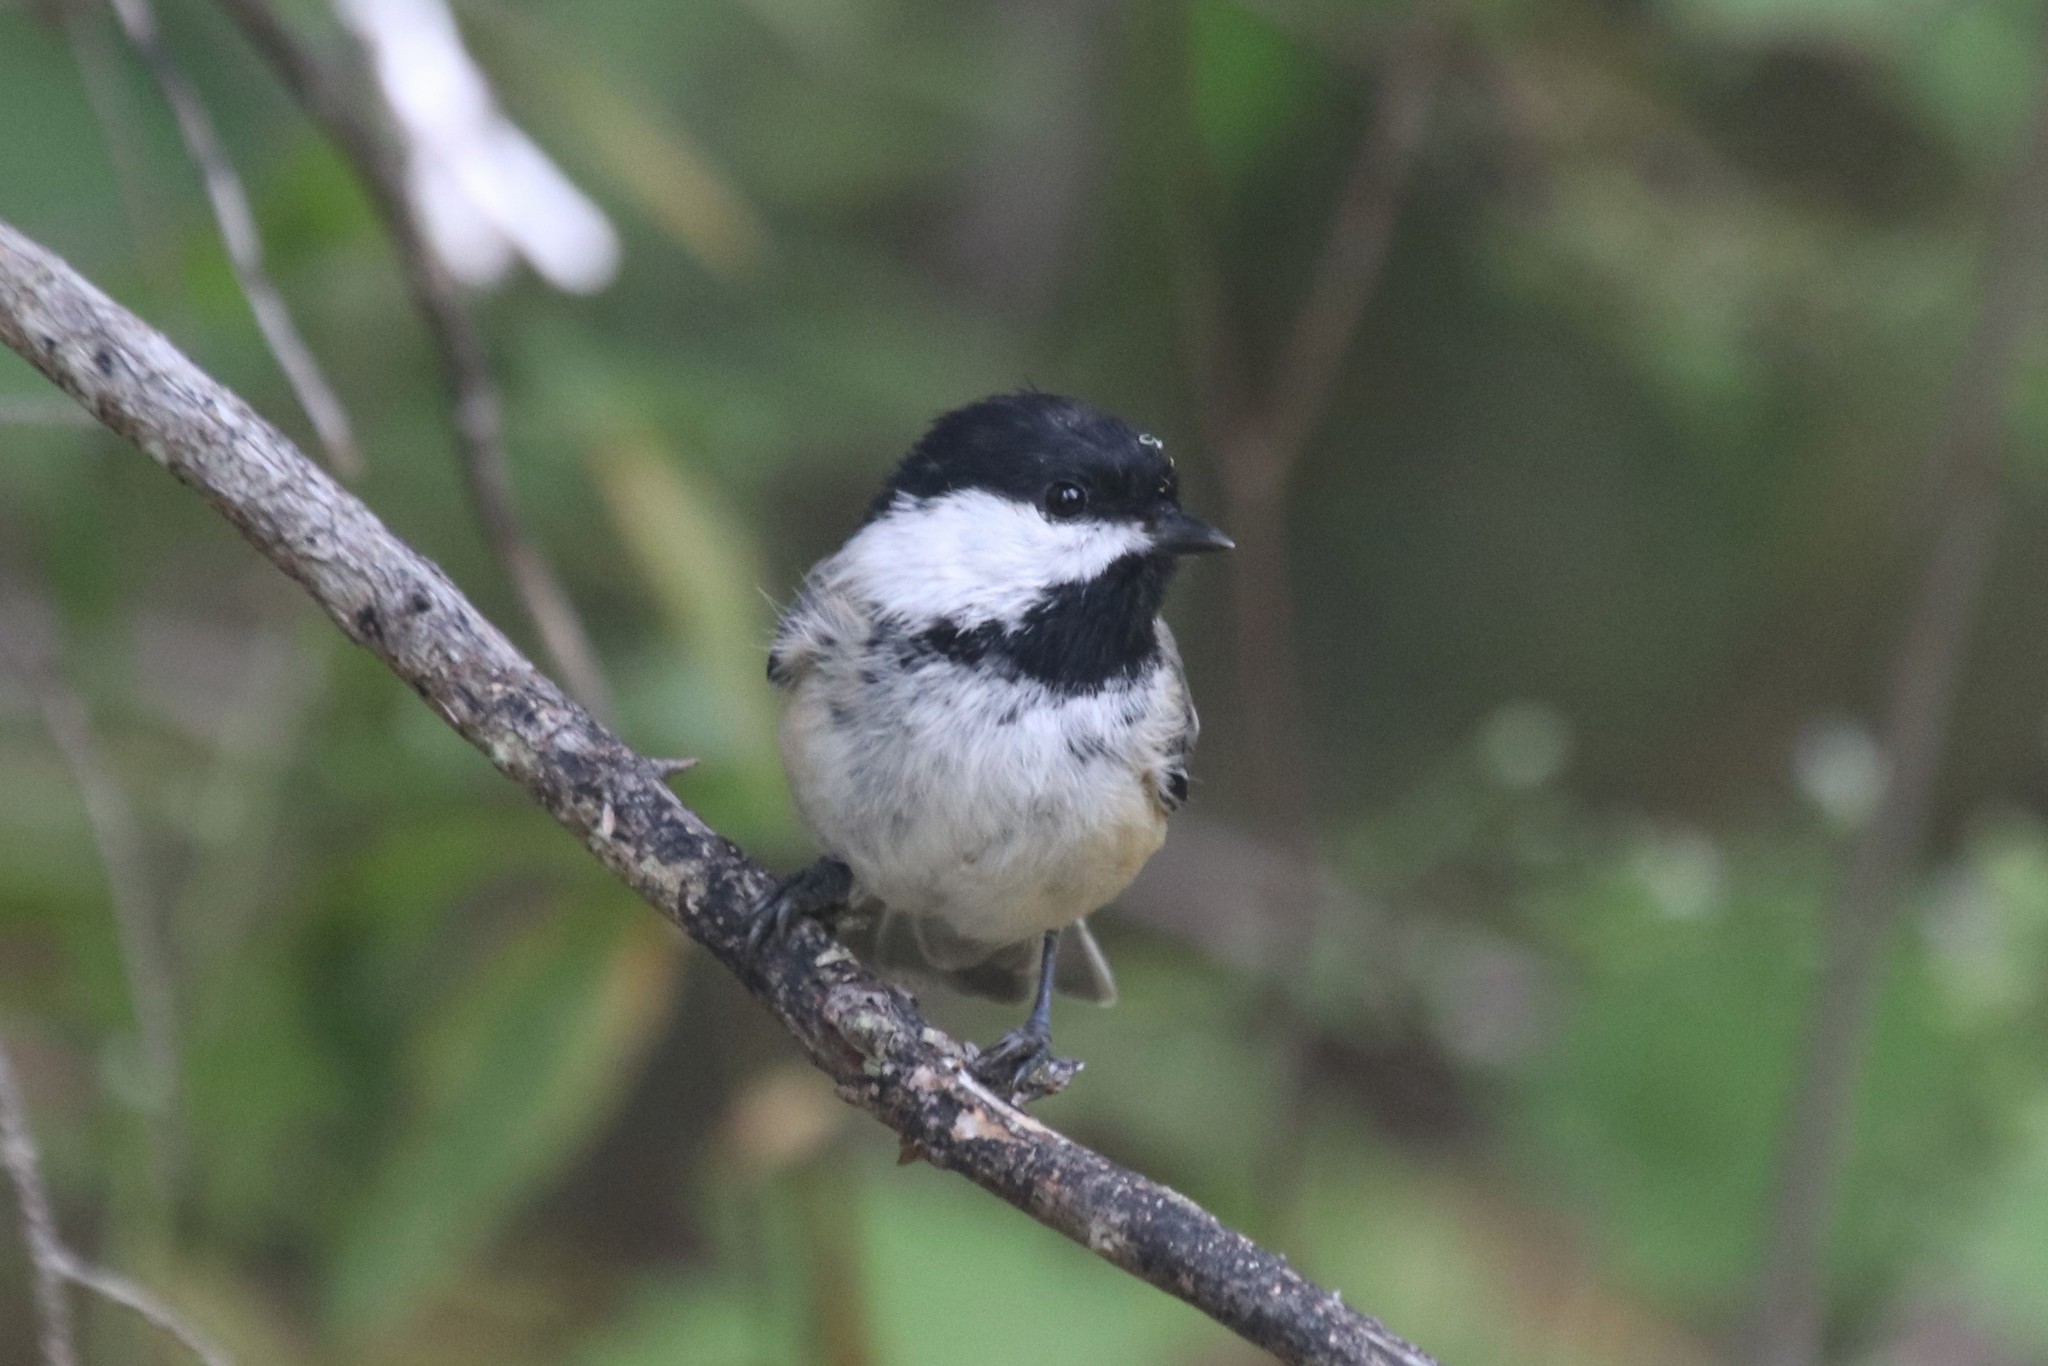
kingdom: Animalia
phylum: Chordata
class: Aves
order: Passeriformes
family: Paridae
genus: Poecile
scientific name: Poecile atricapillus
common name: Black-capped chickadee
